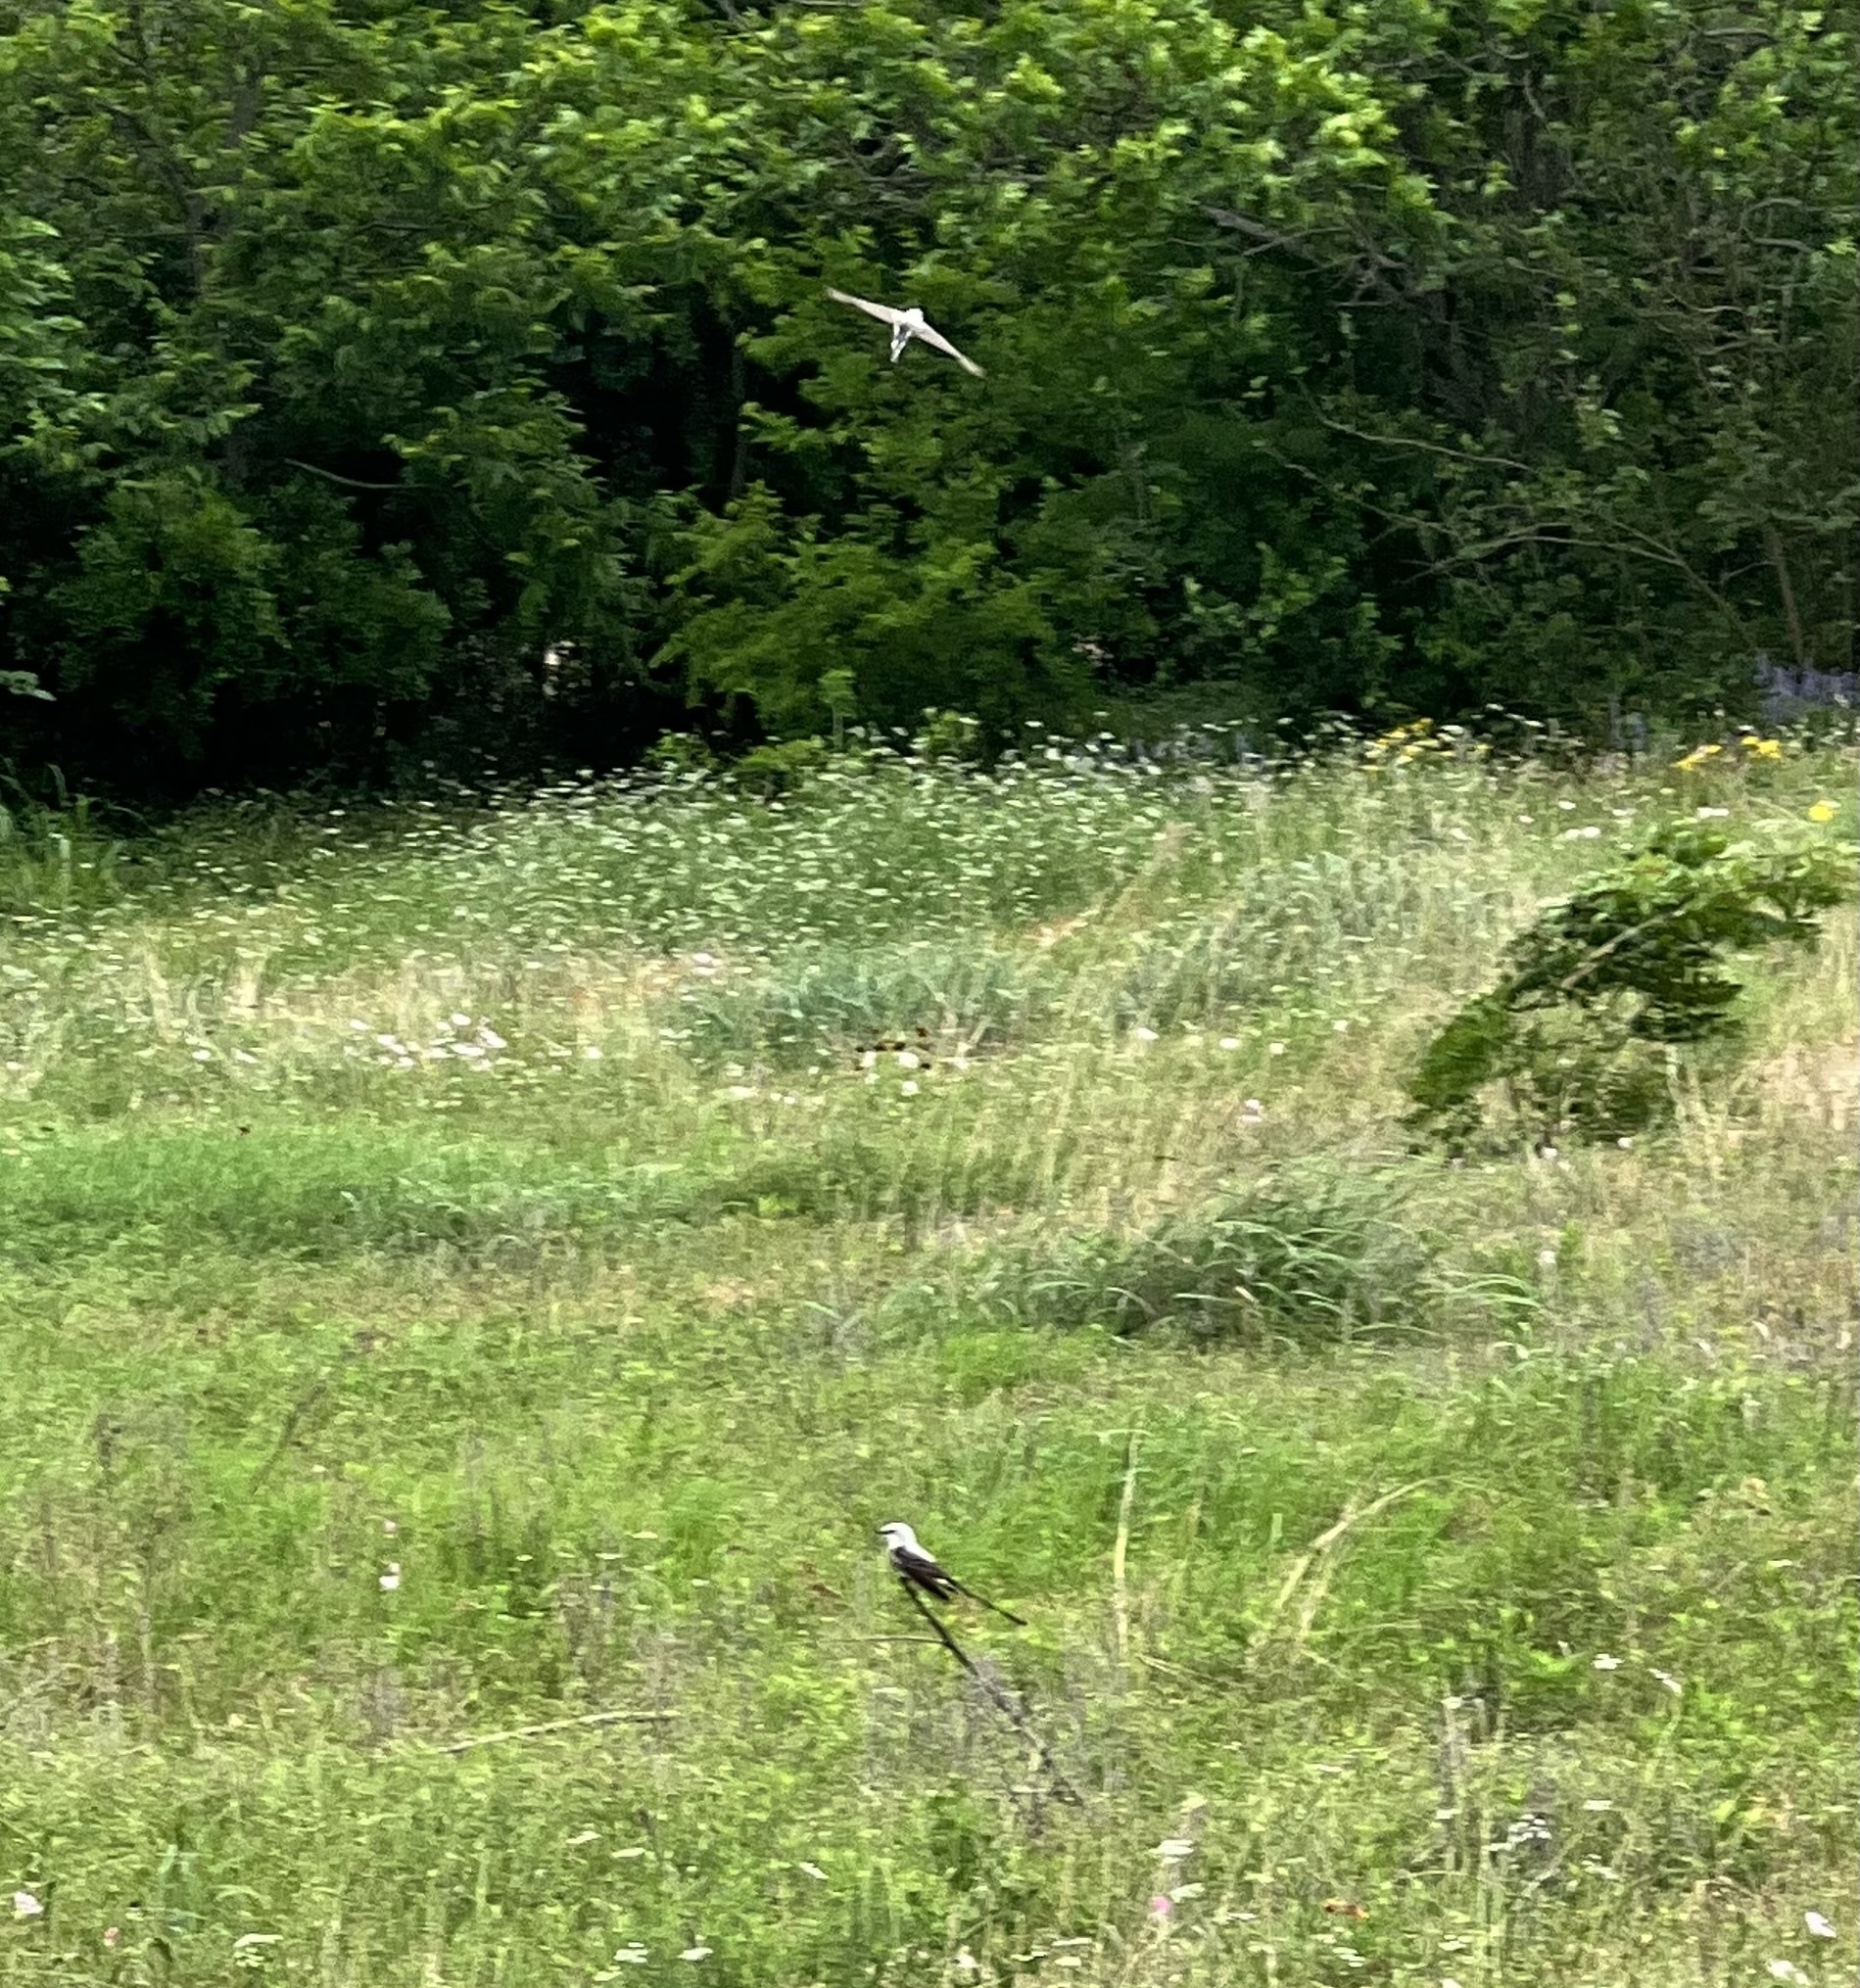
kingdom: Animalia
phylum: Chordata
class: Aves
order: Passeriformes
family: Tyrannidae
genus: Tyrannus
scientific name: Tyrannus forficatus
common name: Scissor-tailed flycatcher
